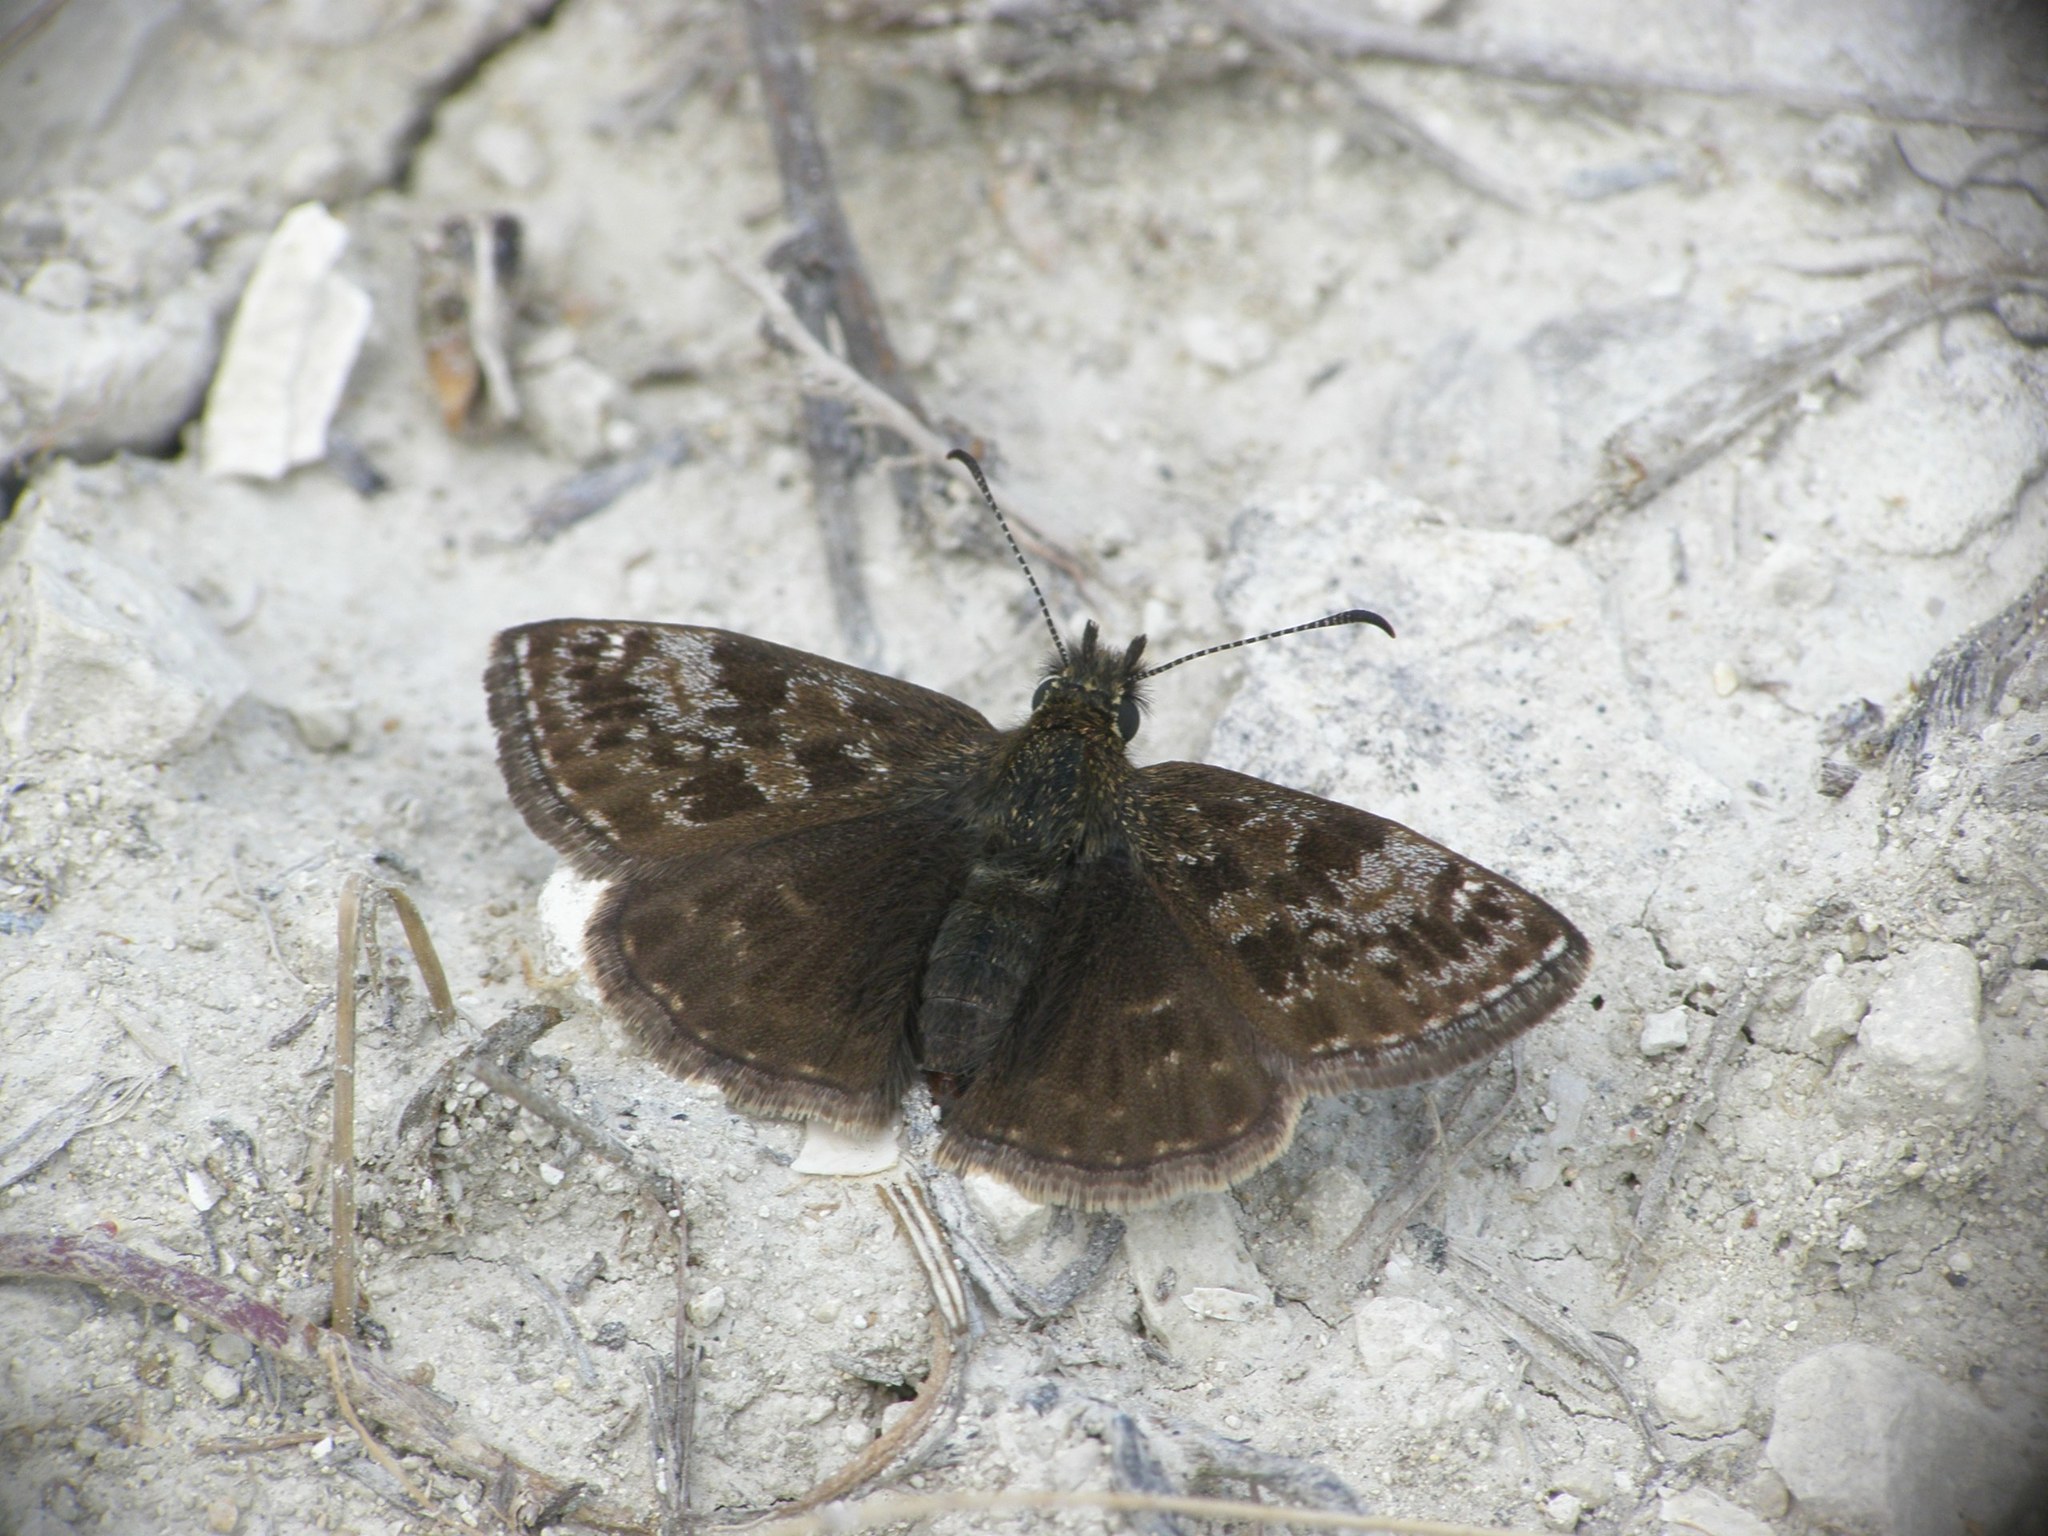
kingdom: Animalia
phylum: Arthropoda
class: Insecta
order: Lepidoptera
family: Hesperiidae
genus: Erynnis
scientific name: Erynnis tages
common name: Dingy skipper
